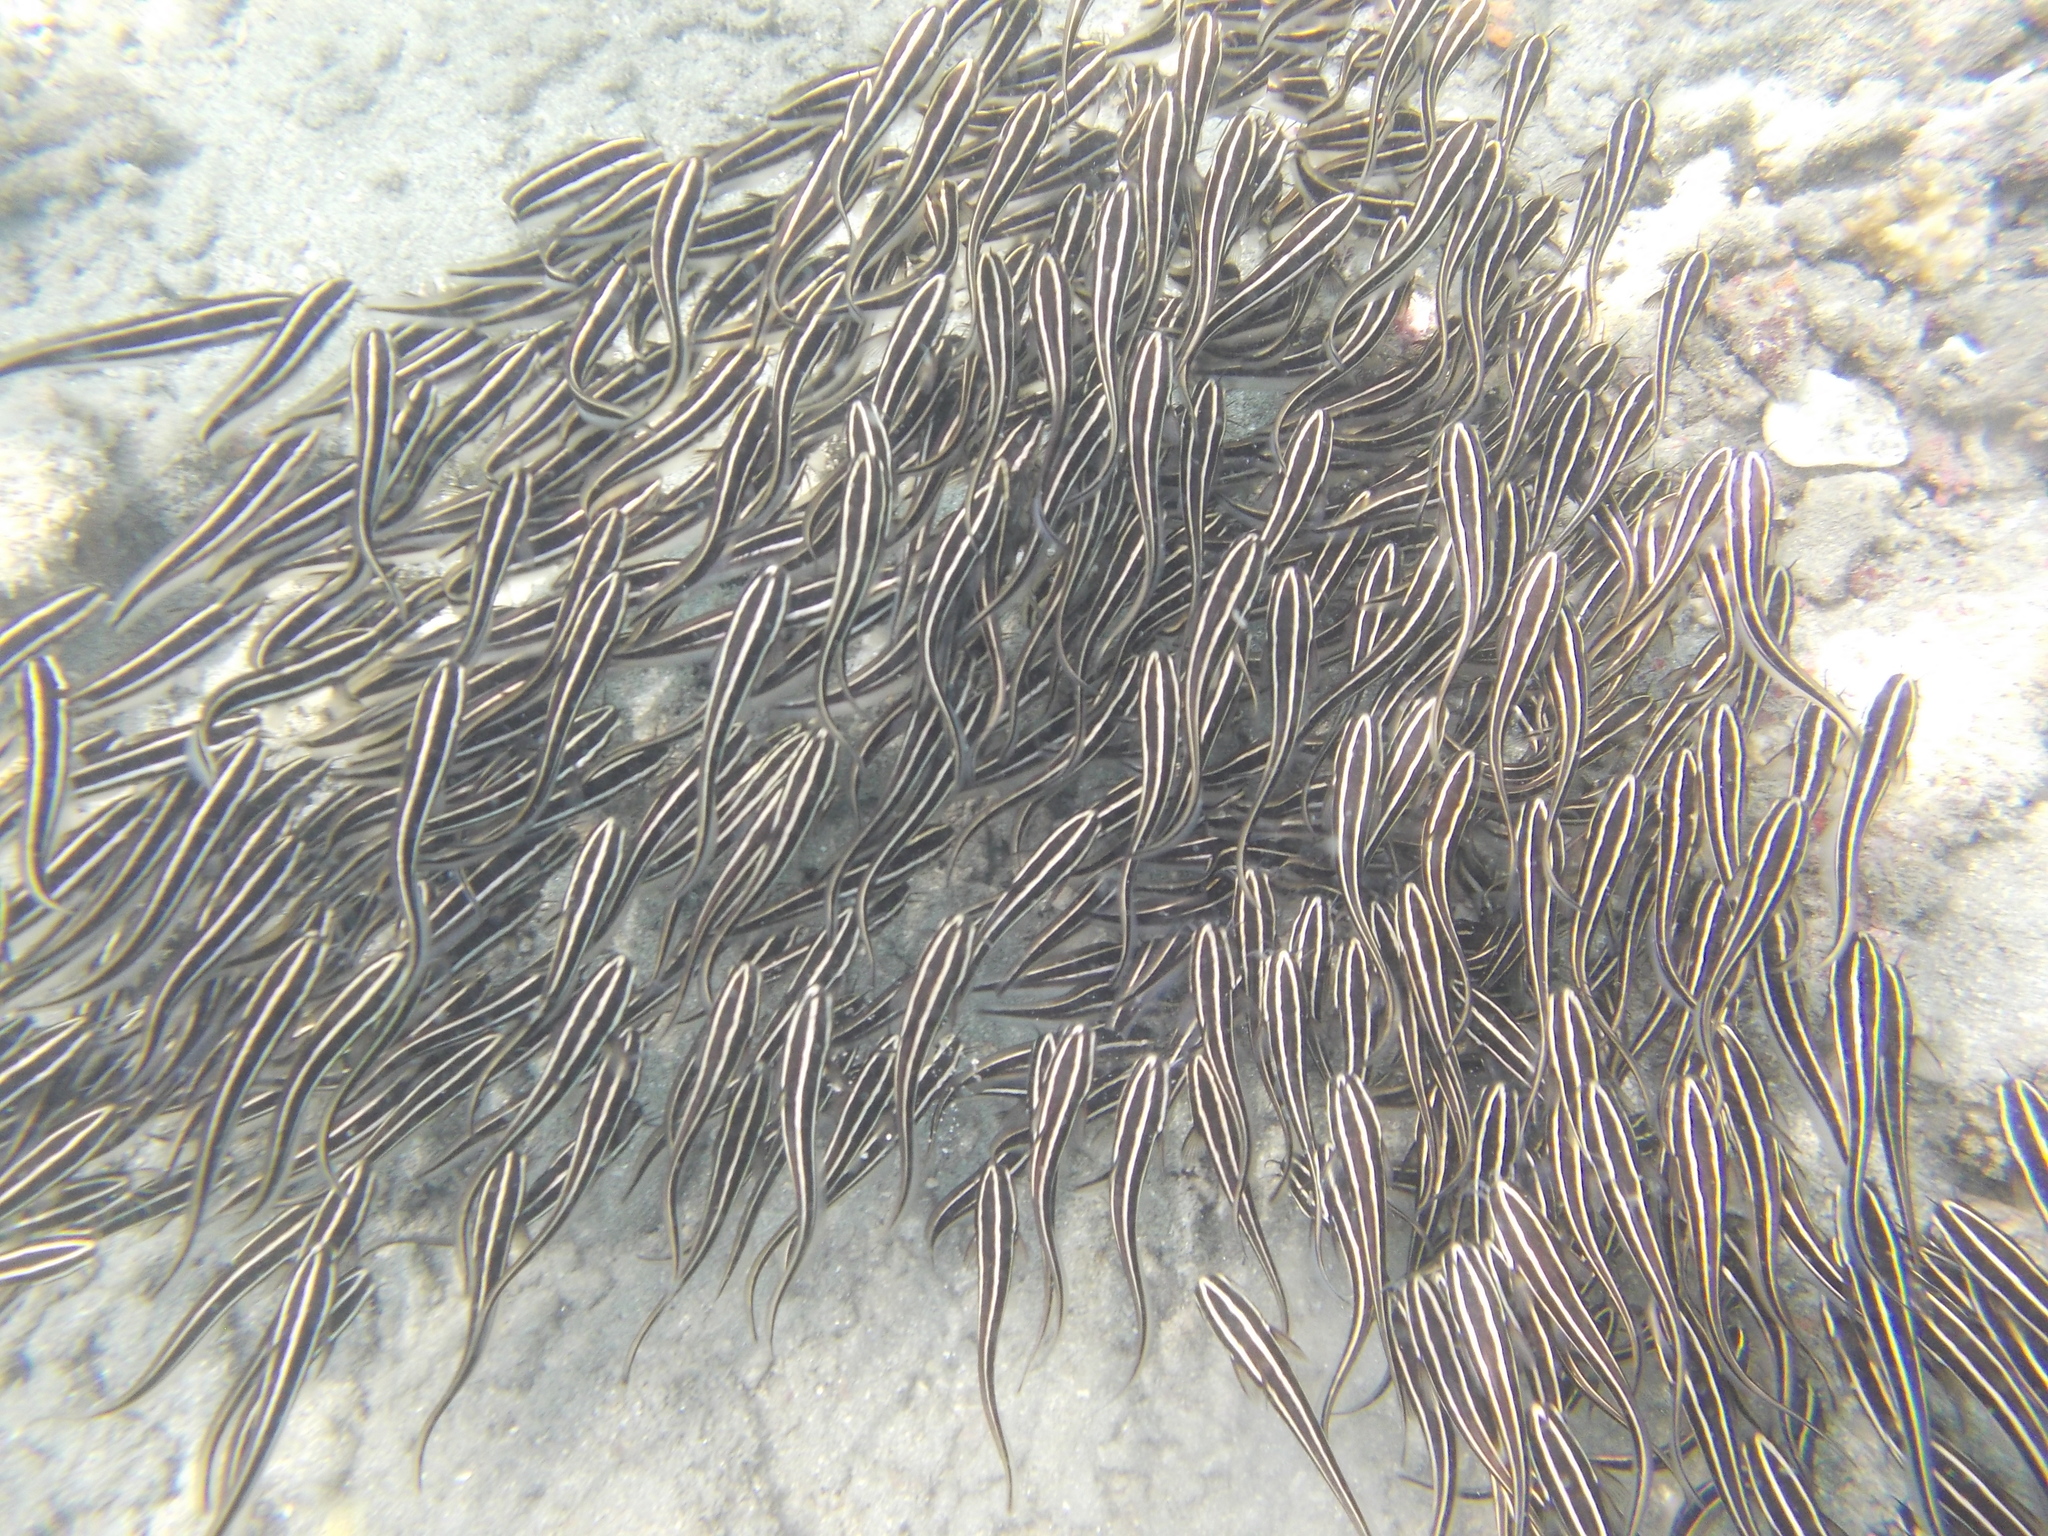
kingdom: Animalia
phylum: Chordata
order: Siluriformes
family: Plotosidae
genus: Plotosus
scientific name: Plotosus lineatus
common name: Striped eel catfish
